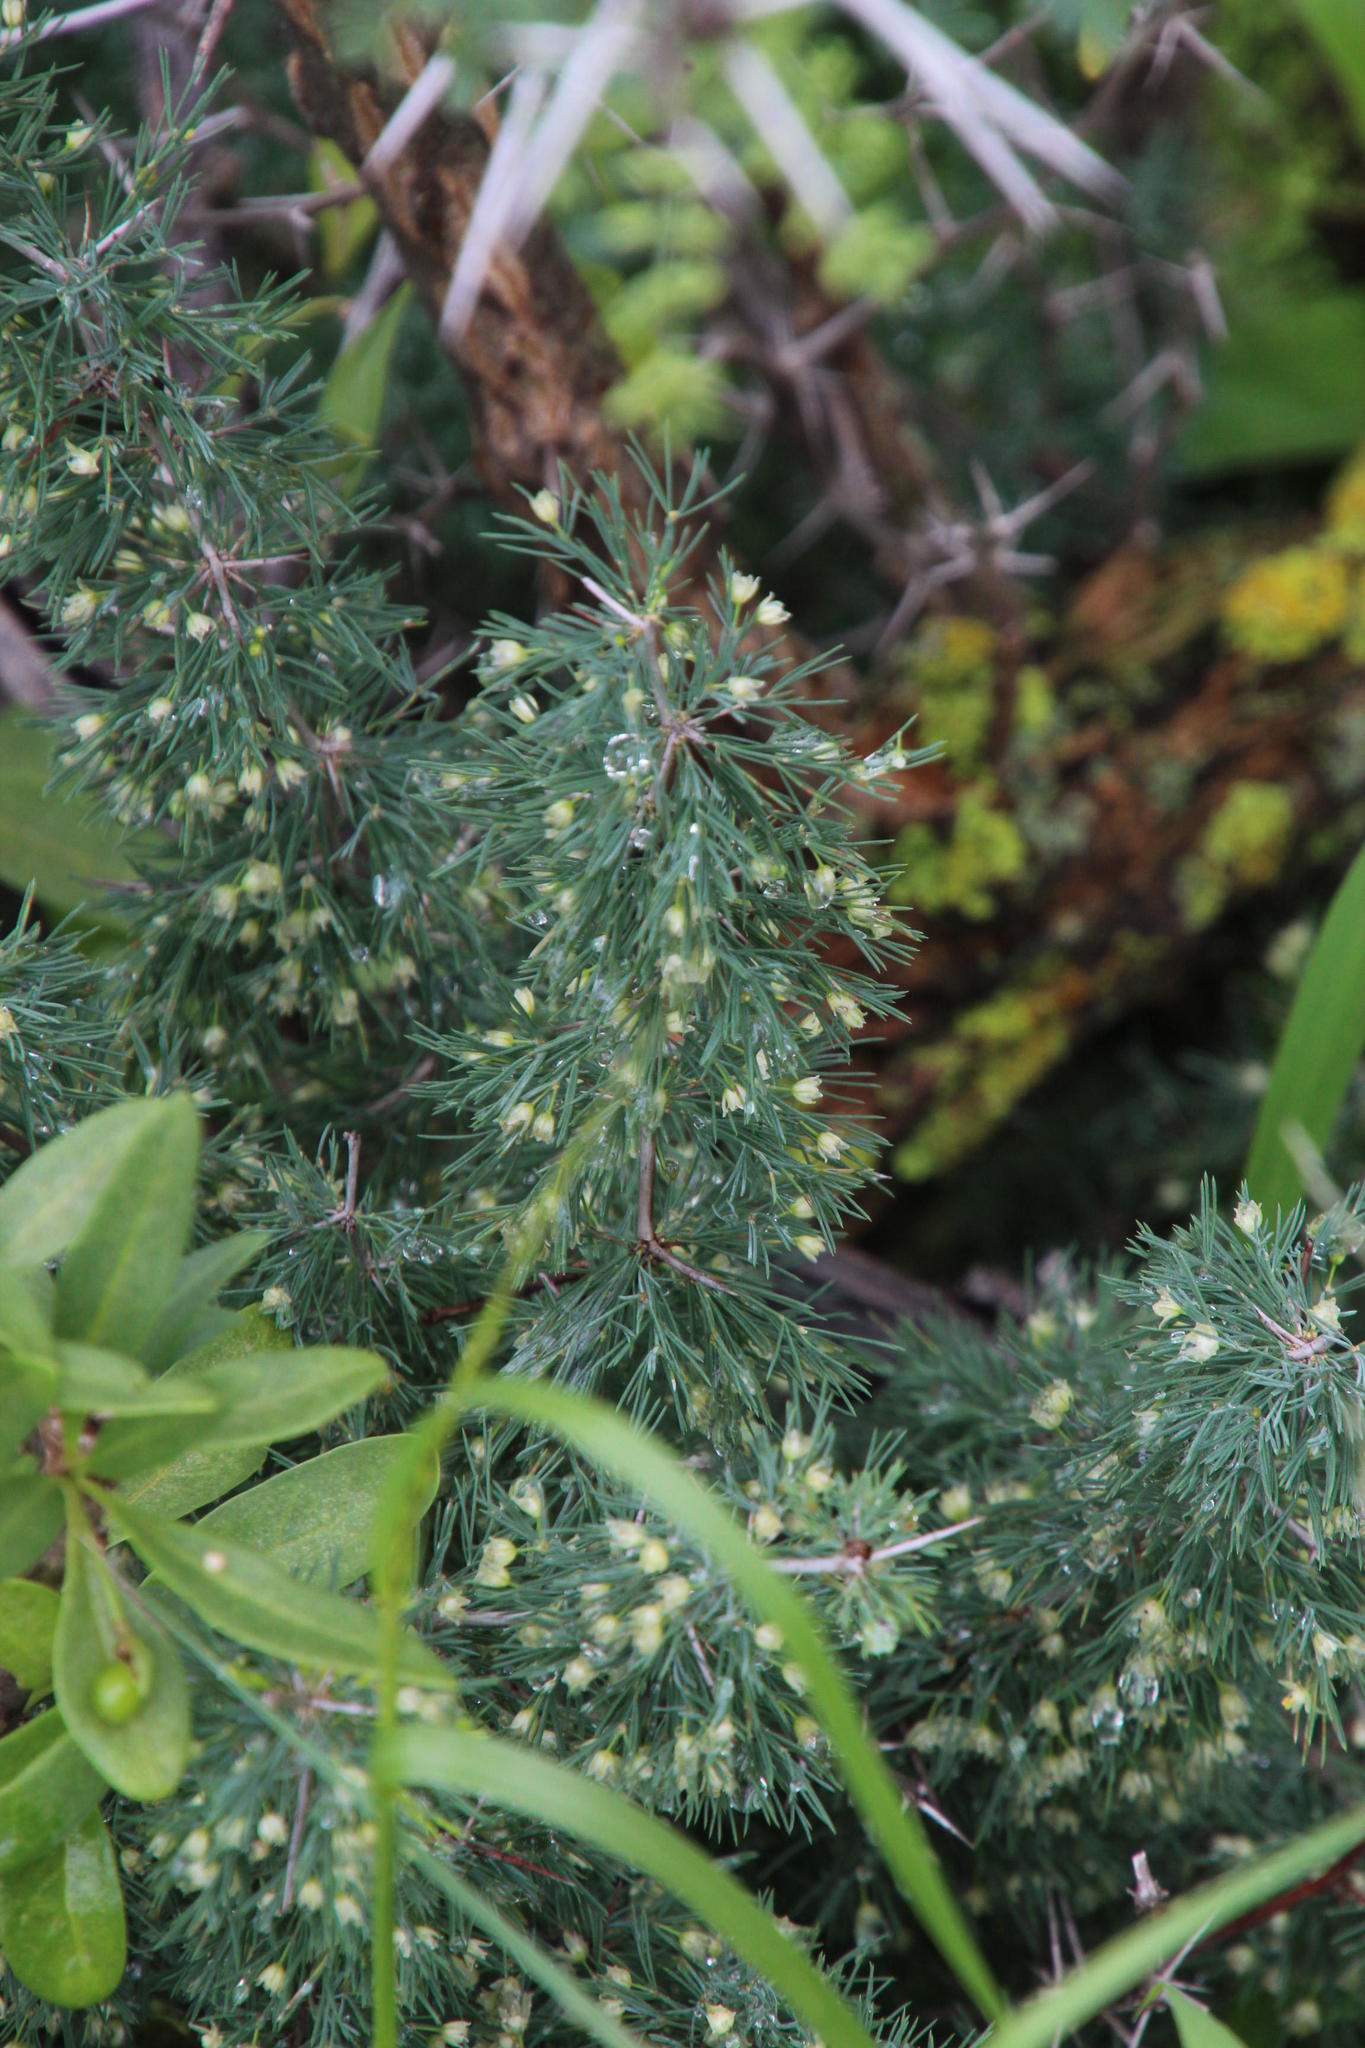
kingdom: Plantae
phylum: Tracheophyta
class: Liliopsida
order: Asparagales
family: Asparagaceae
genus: Asparagus
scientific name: Asparagus suaveolens
